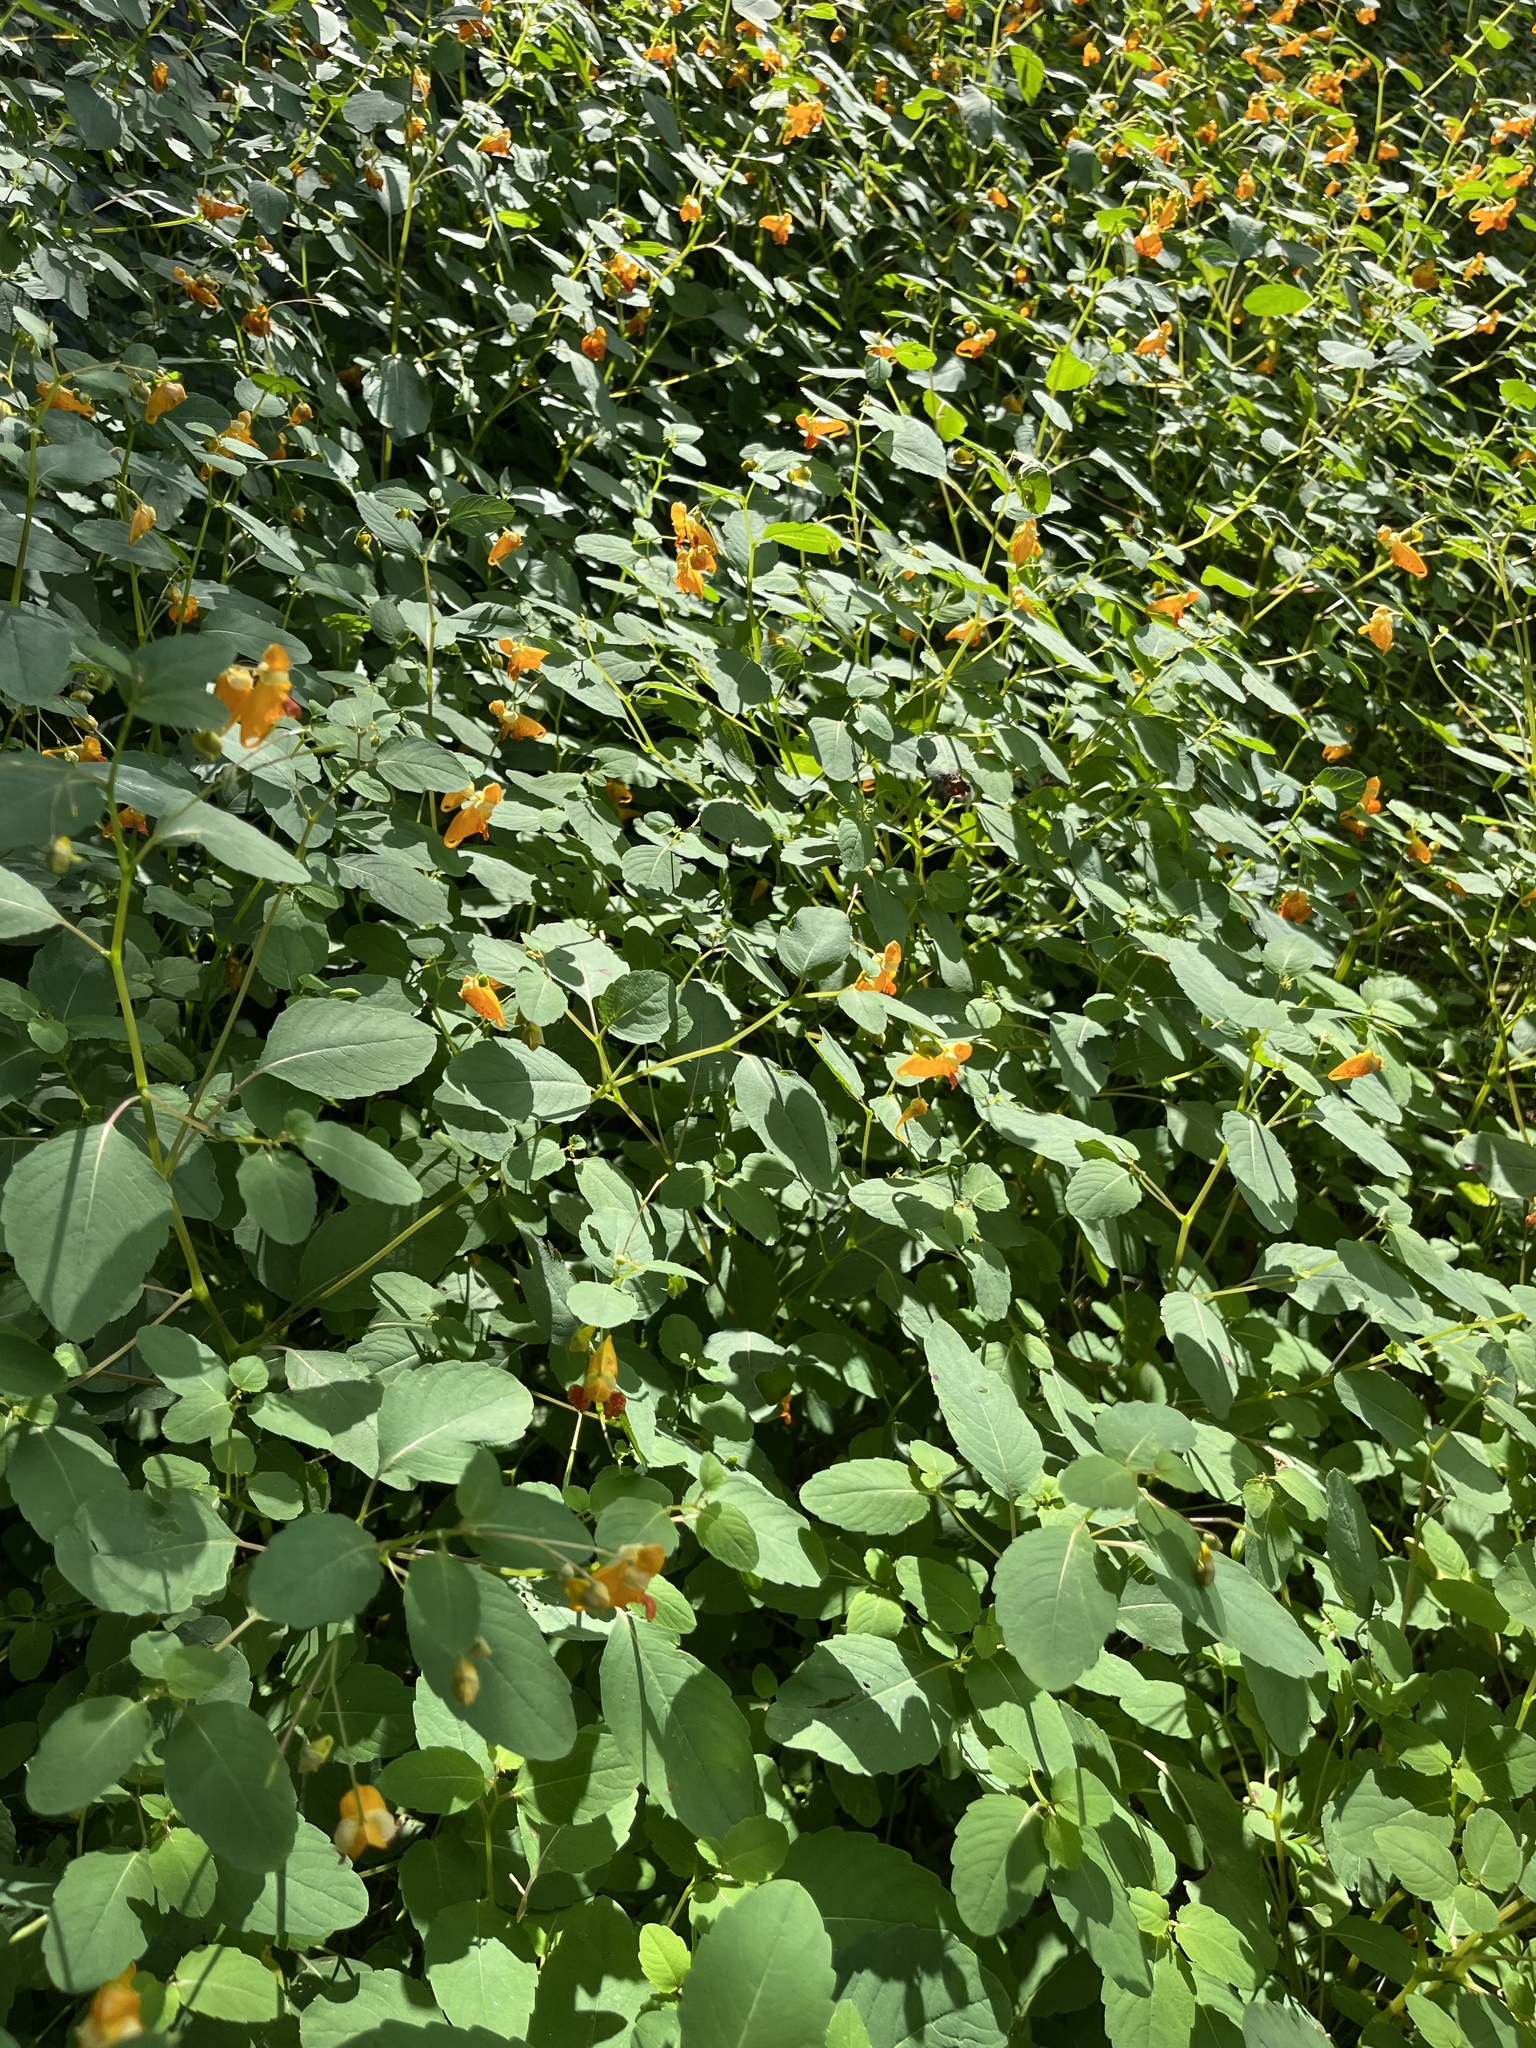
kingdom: Plantae
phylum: Tracheophyta
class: Magnoliopsida
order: Ericales
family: Balsaminaceae
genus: Impatiens
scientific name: Impatiens capensis
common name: Orange balsam
